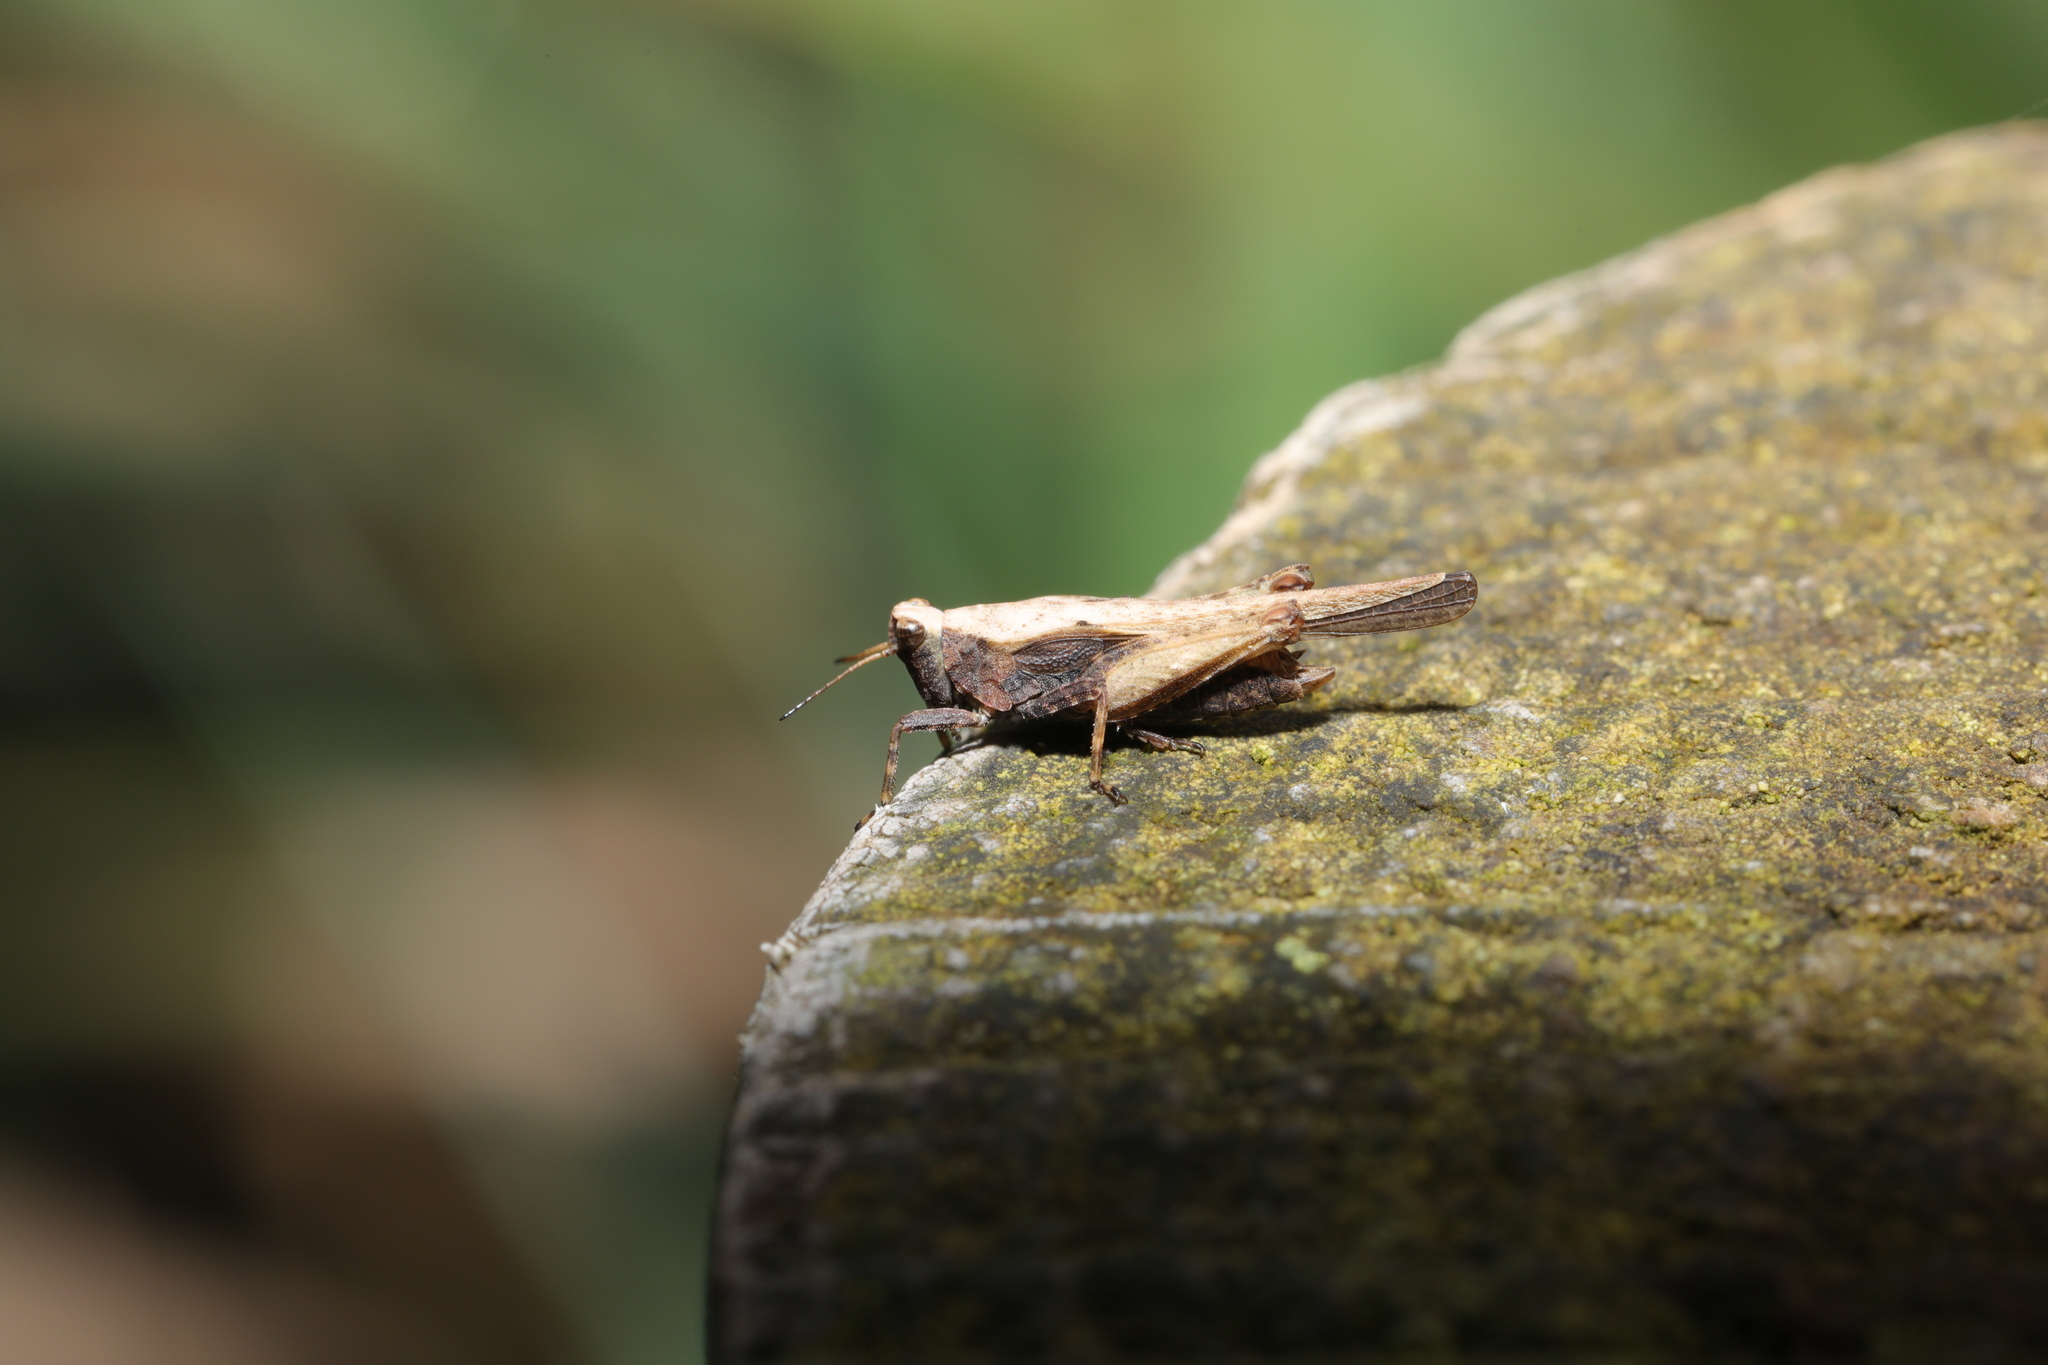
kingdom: Animalia
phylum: Arthropoda
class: Insecta
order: Orthoptera
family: Tetrigidae
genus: Tetrix
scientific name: Tetrix subulata
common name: Slender ground-hopper
